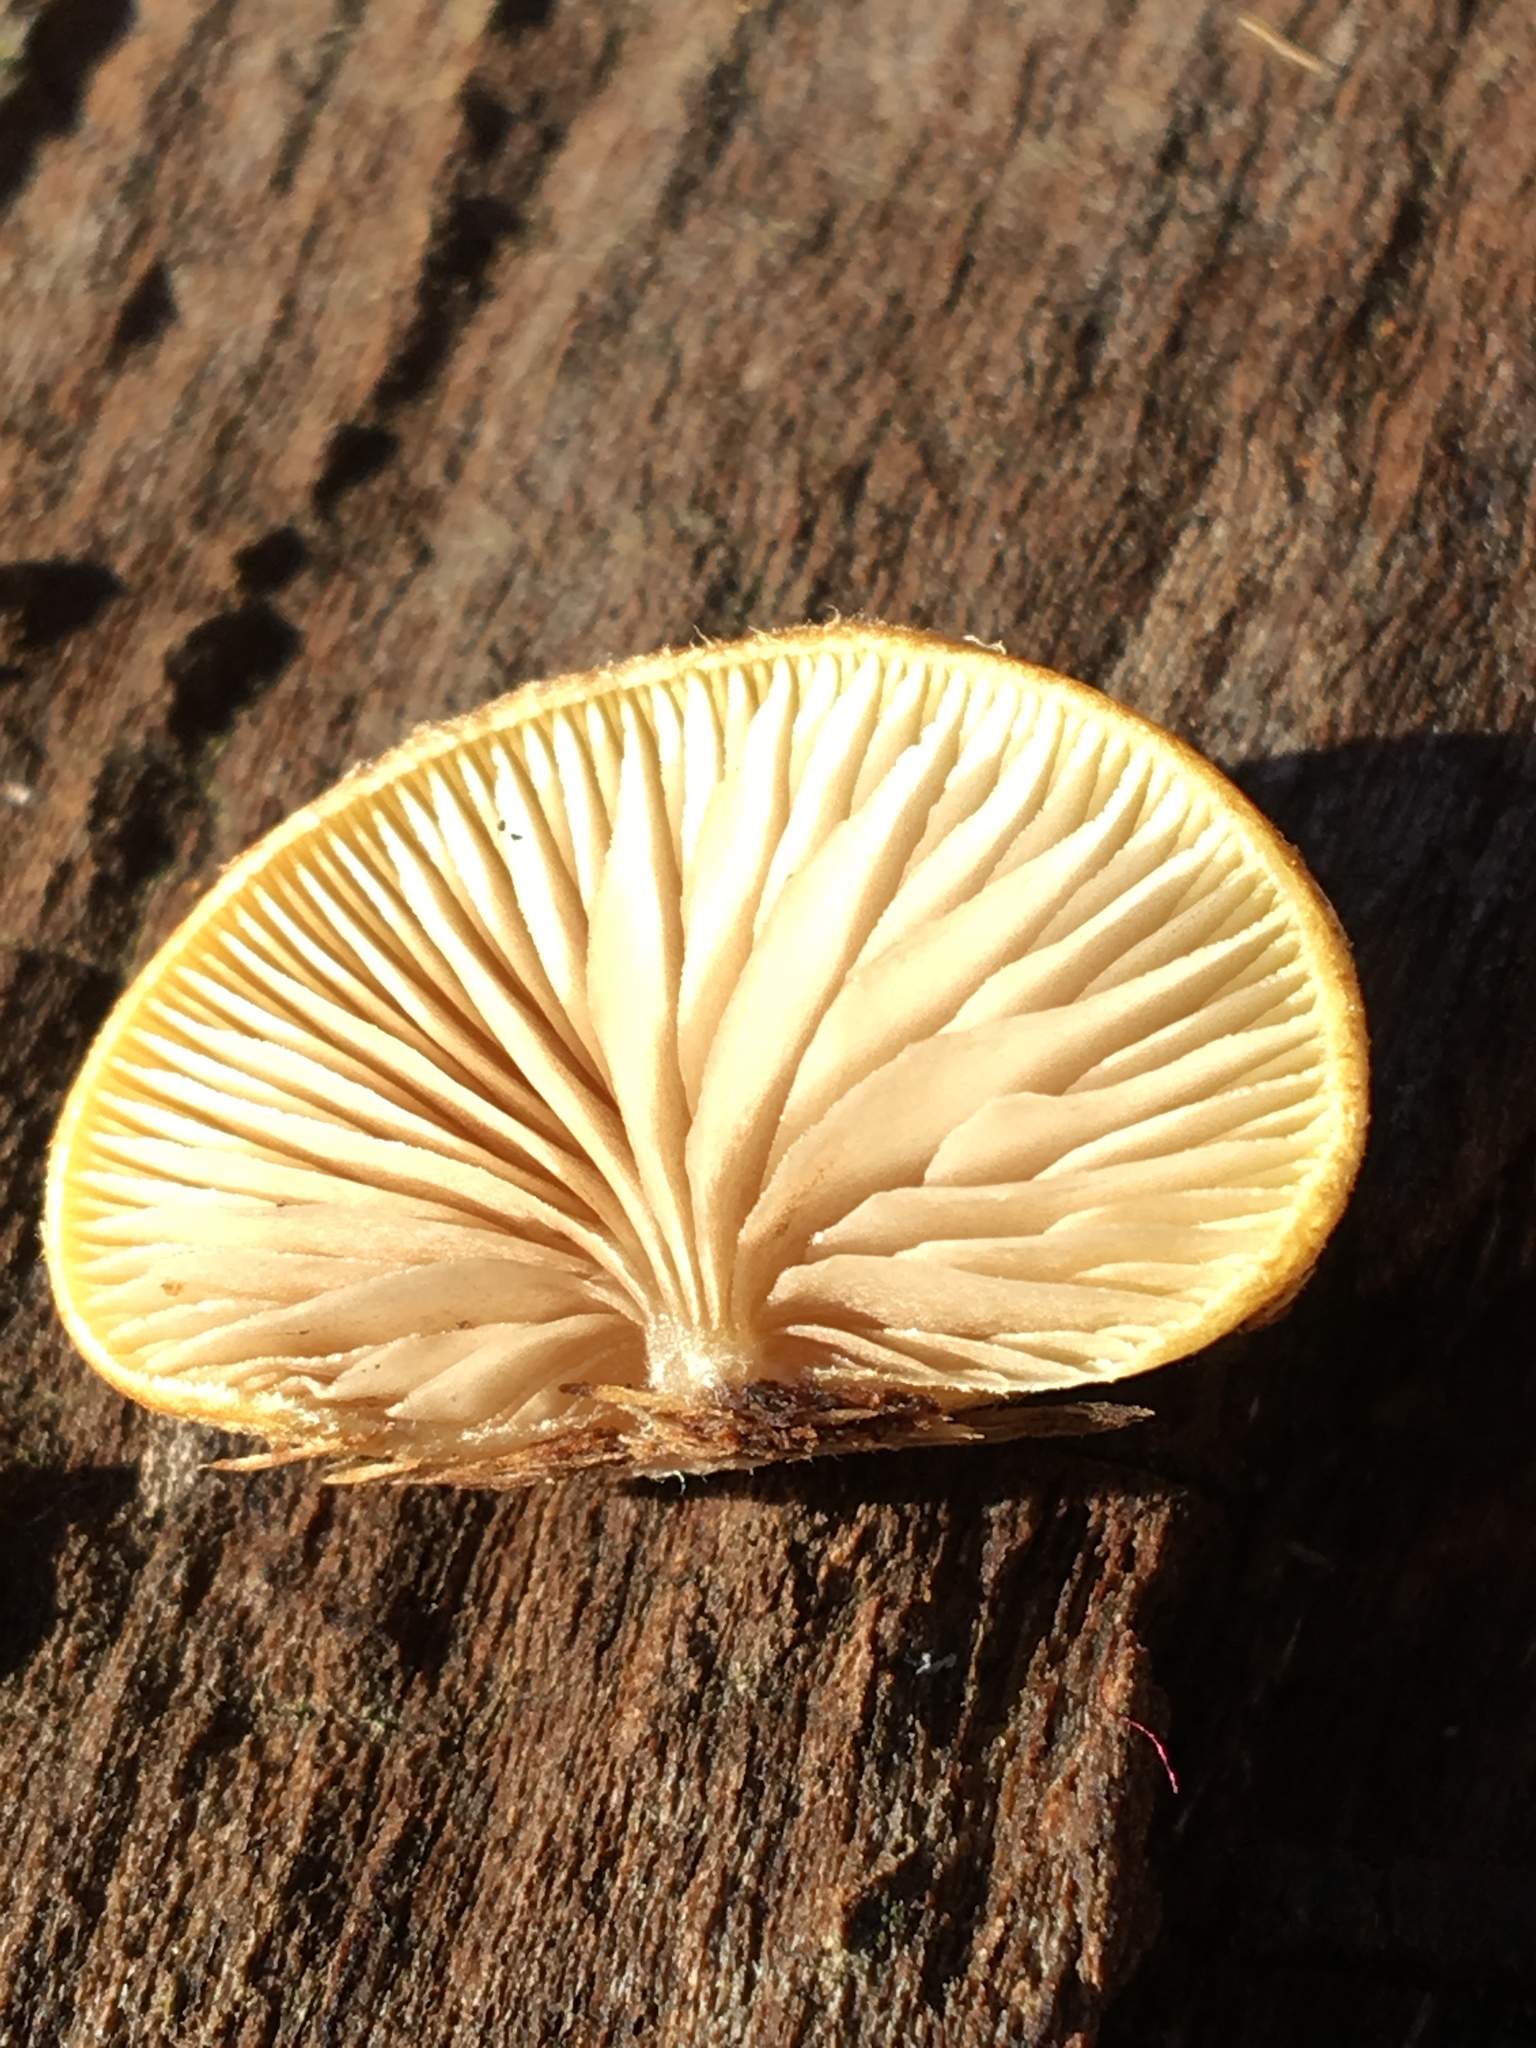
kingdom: Fungi
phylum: Basidiomycota
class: Agaricomycetes
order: Agaricales
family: Crepidotaceae
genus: Crepidotus
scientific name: Crepidotus eucalyptorum
